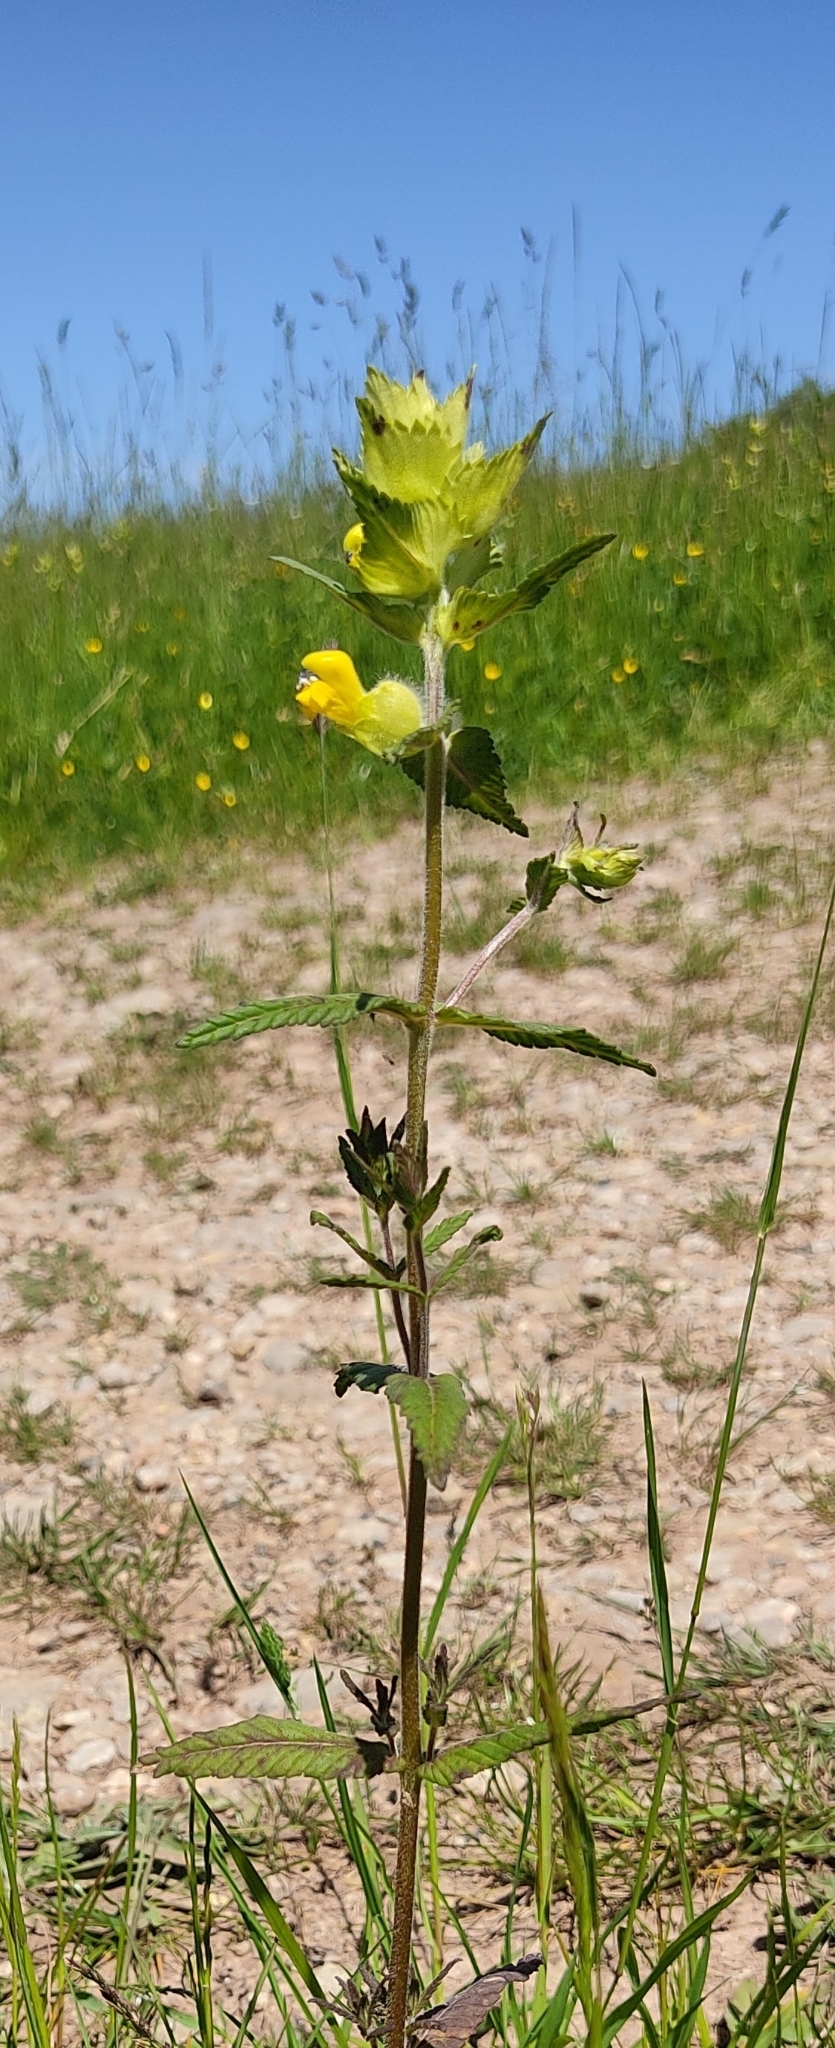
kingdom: Plantae
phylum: Tracheophyta
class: Magnoliopsida
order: Lamiales
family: Orobanchaceae
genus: Rhinanthus
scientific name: Rhinanthus alectorolophus
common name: Greater yellow-rattle
